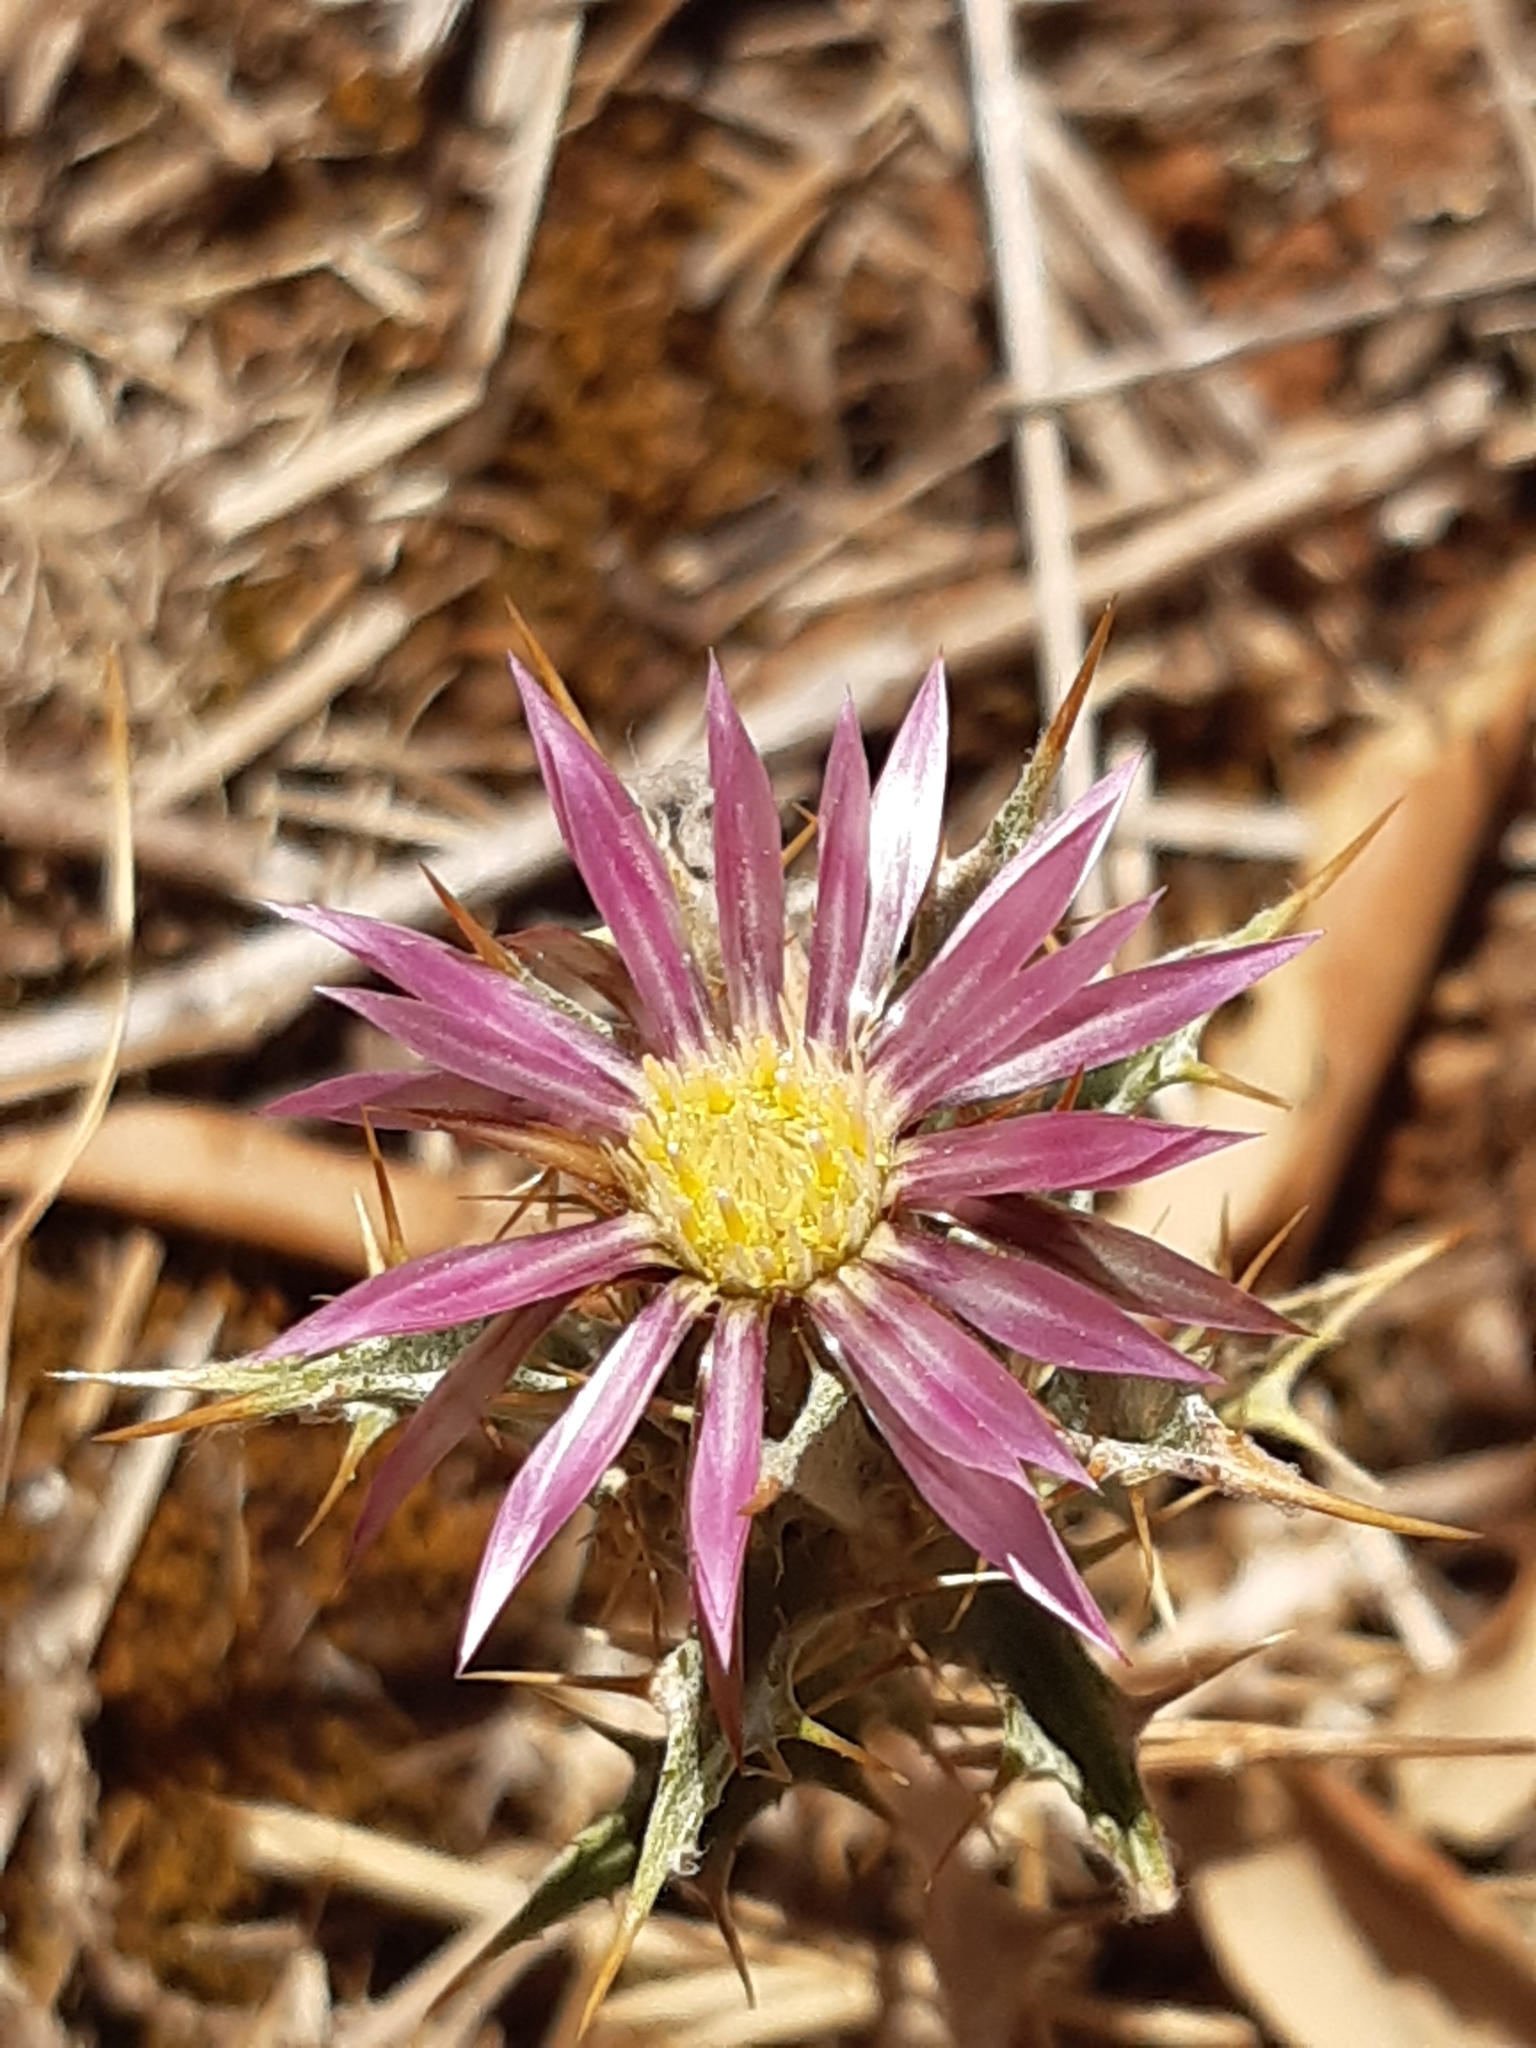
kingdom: Plantae
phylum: Tracheophyta
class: Magnoliopsida
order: Asterales
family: Asteraceae
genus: Carlina
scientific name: Carlina lanata
